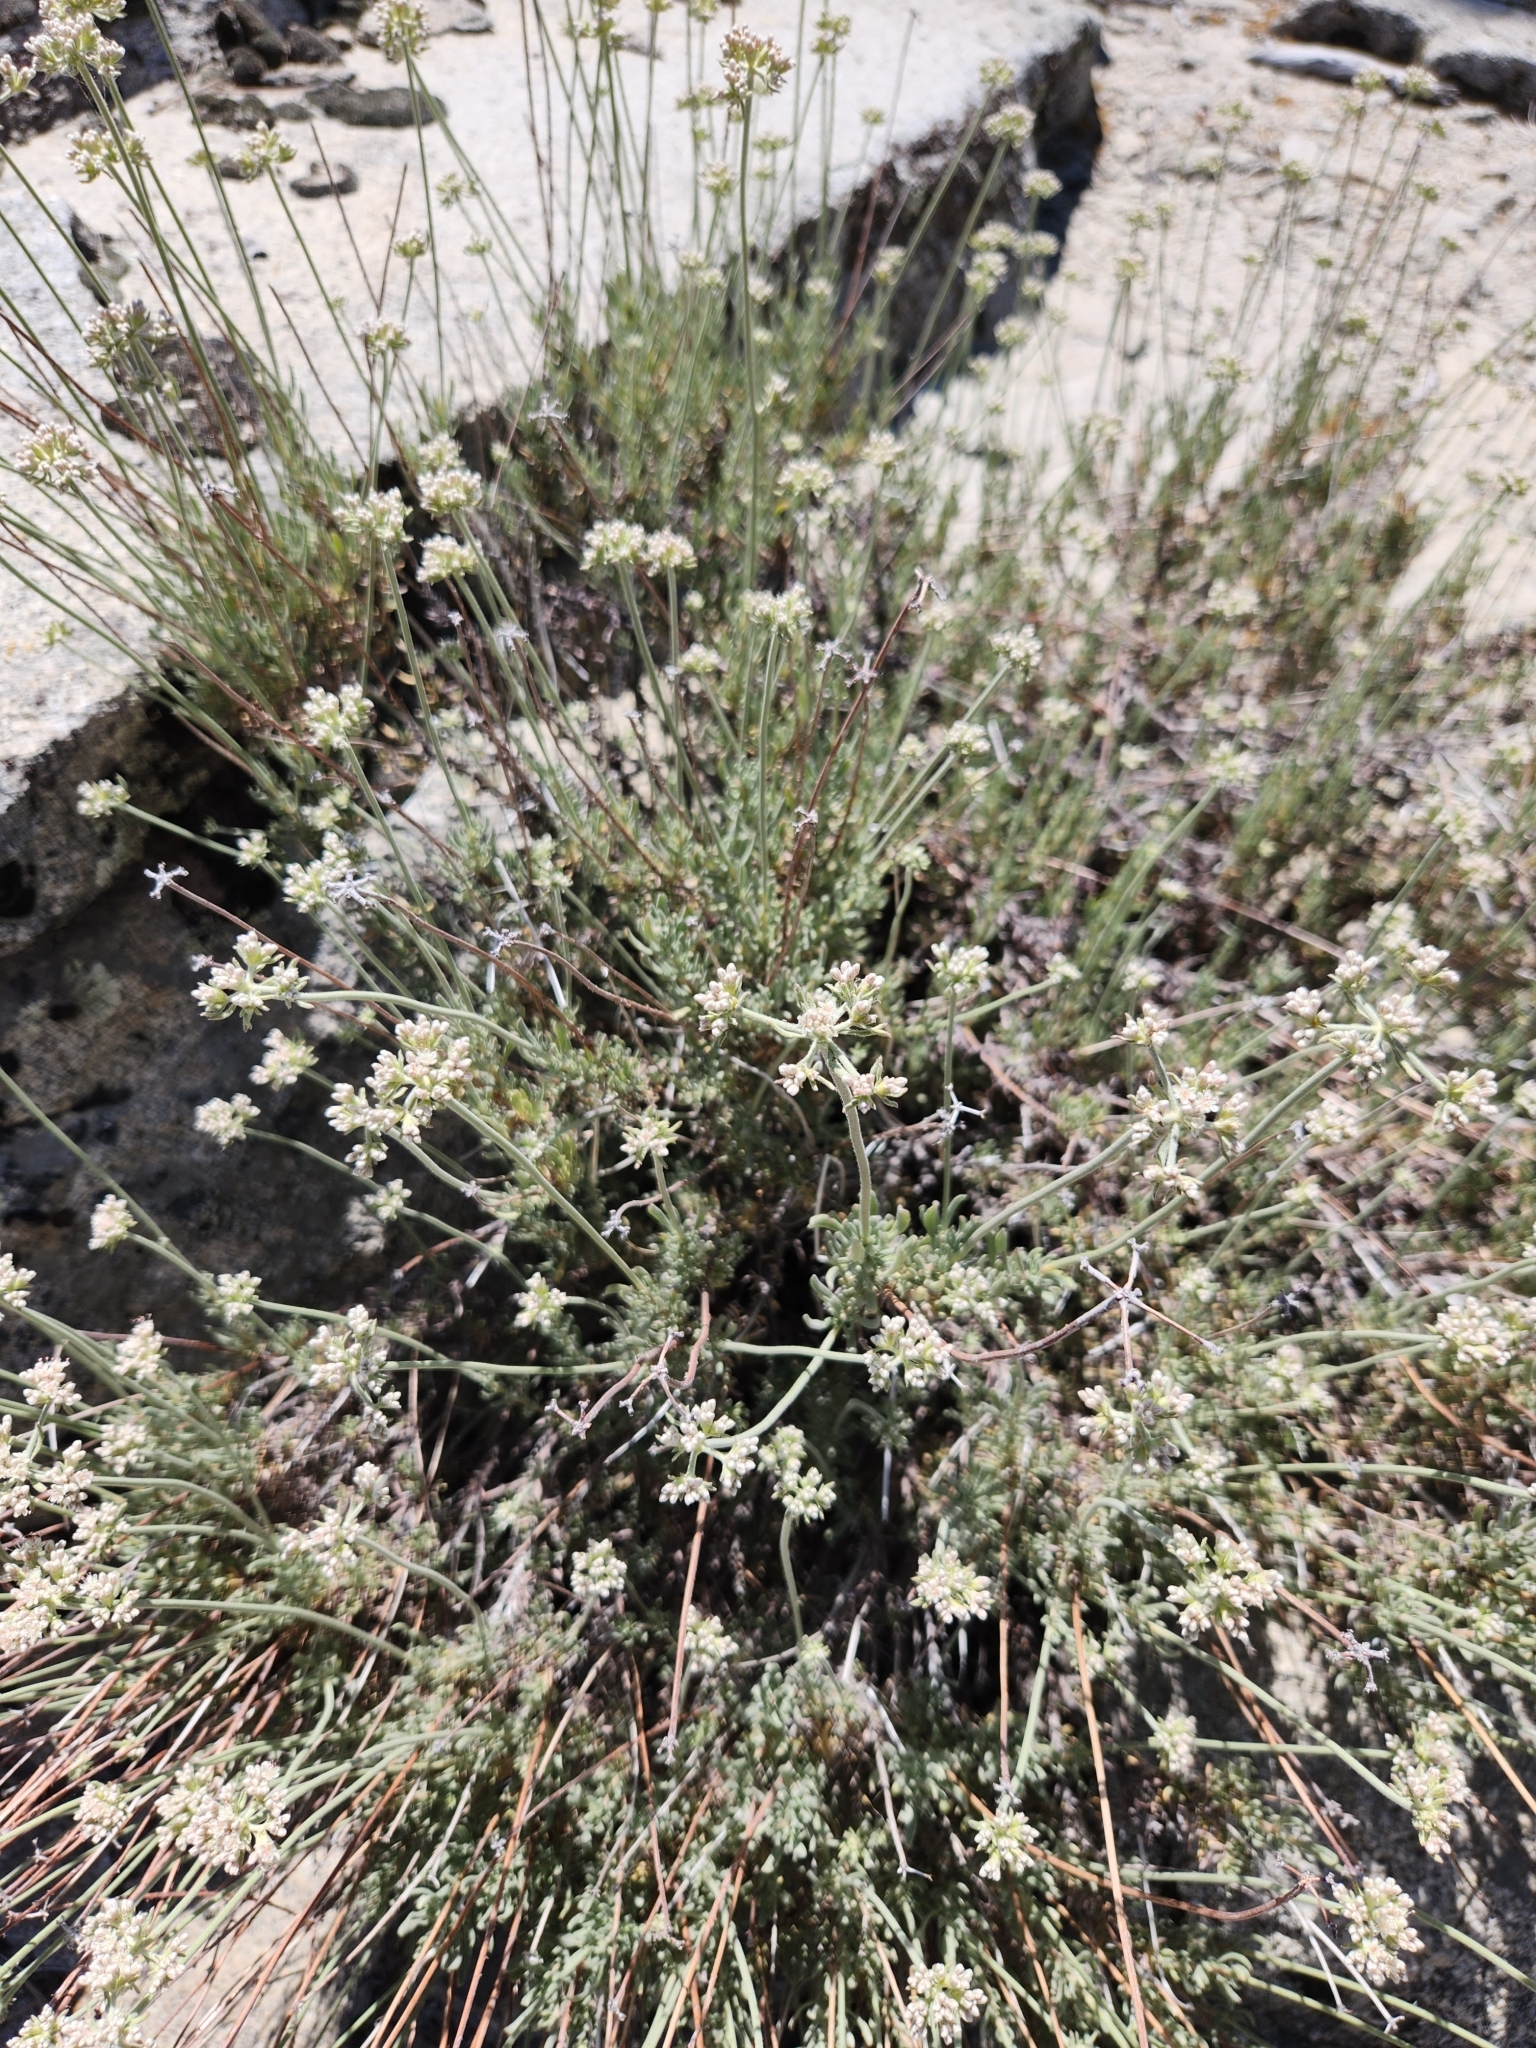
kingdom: Plantae
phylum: Tracheophyta
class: Magnoliopsida
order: Caryophyllales
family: Polygonaceae
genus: Eriogonum
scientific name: Eriogonum fasciculatum
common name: California wild buckwheat
